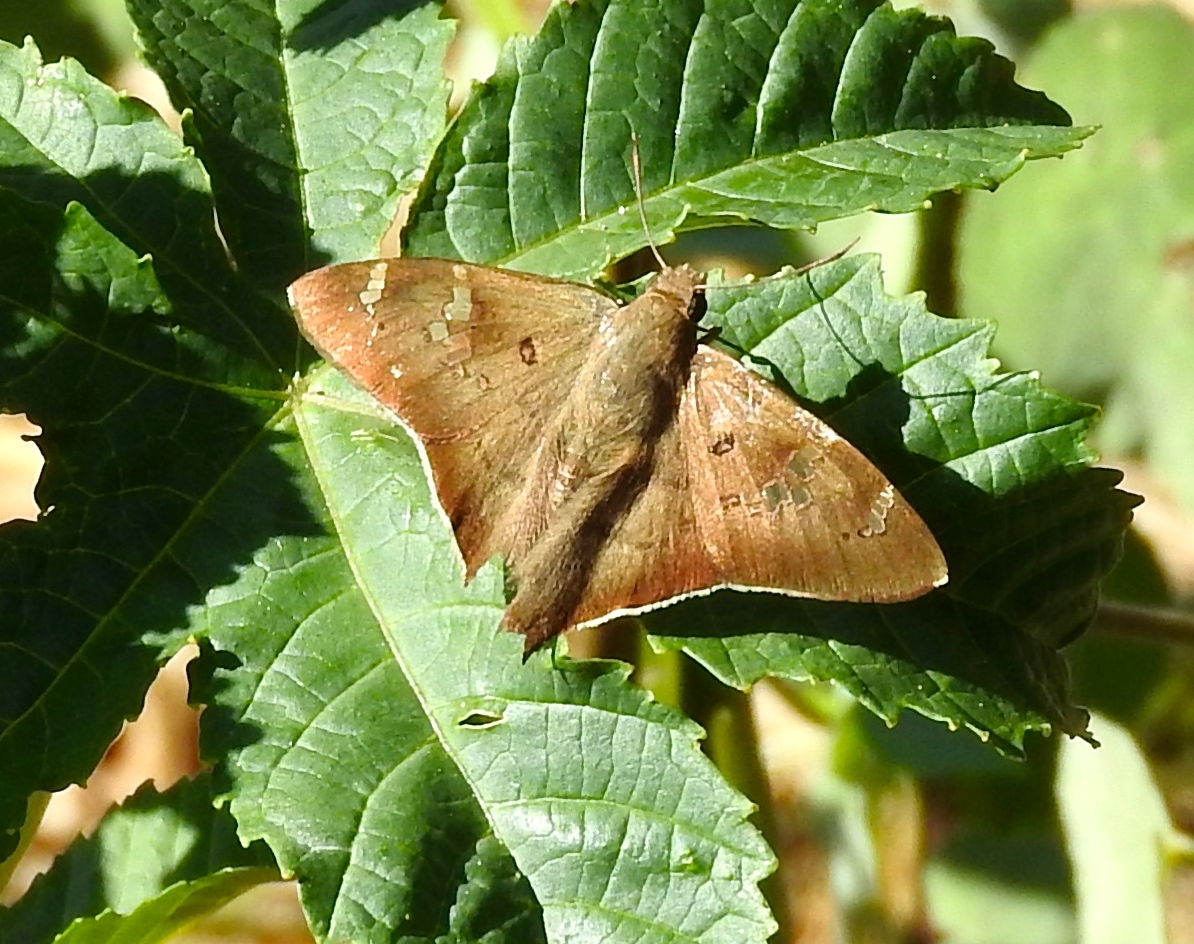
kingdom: Animalia
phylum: Arthropoda
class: Insecta
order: Lepidoptera
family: Hesperiidae
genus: Ectomis
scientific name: Ectomis
